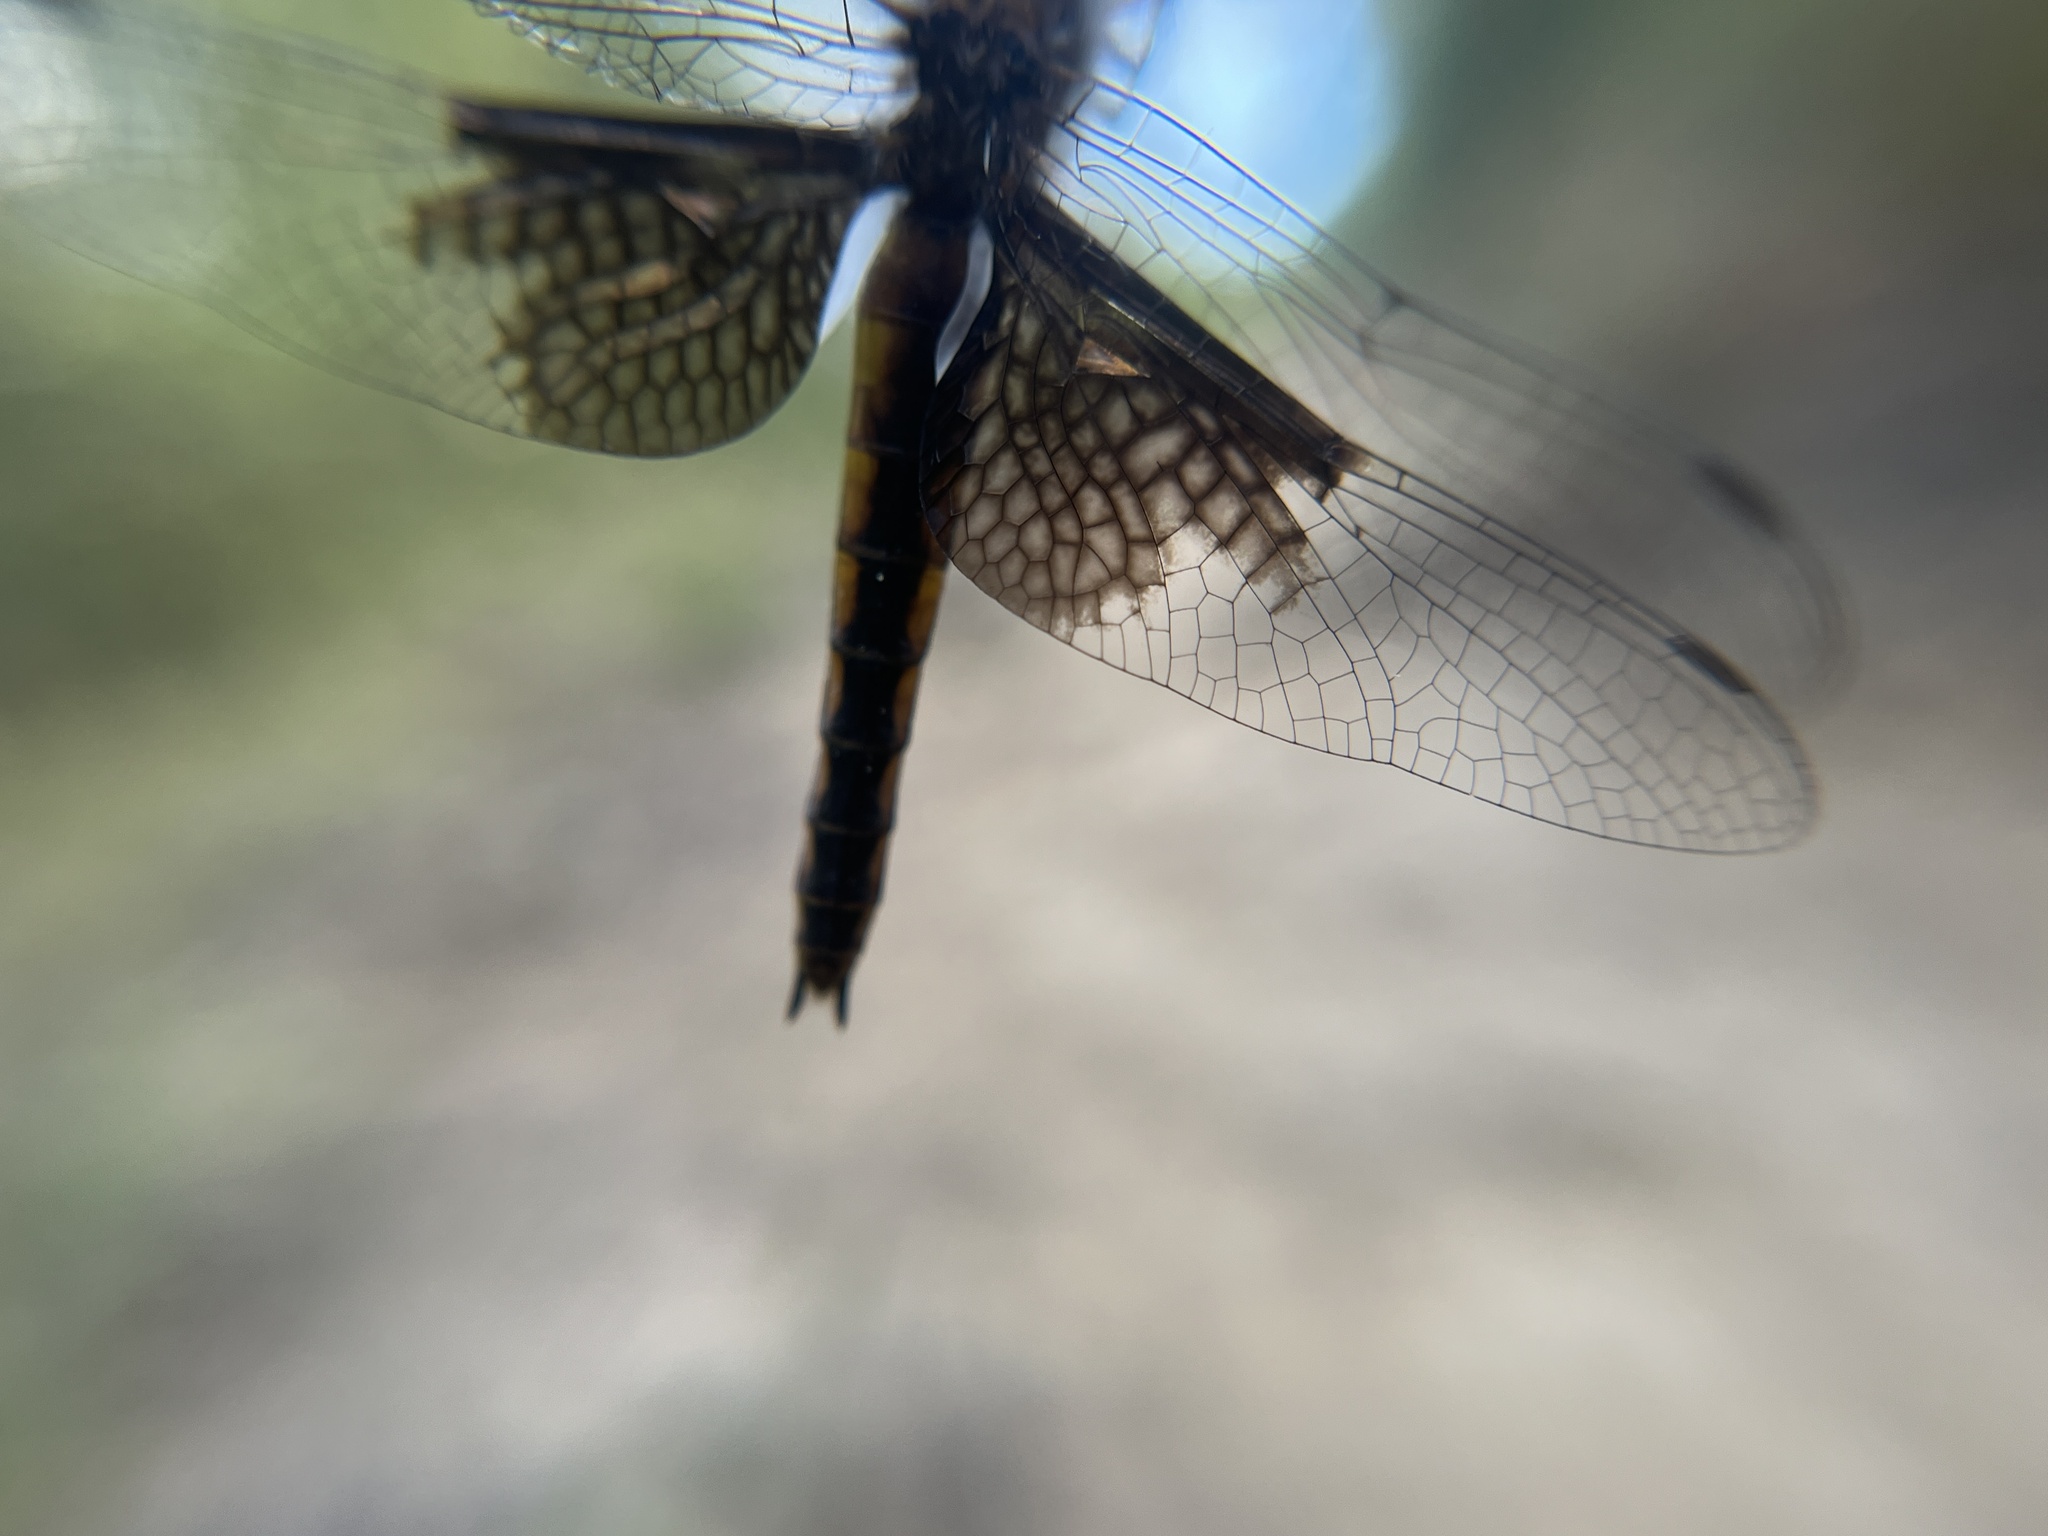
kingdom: Animalia
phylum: Arthropoda
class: Insecta
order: Odonata
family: Corduliidae
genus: Epitheca
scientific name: Epitheca semiaquea
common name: Mantled baskettail
